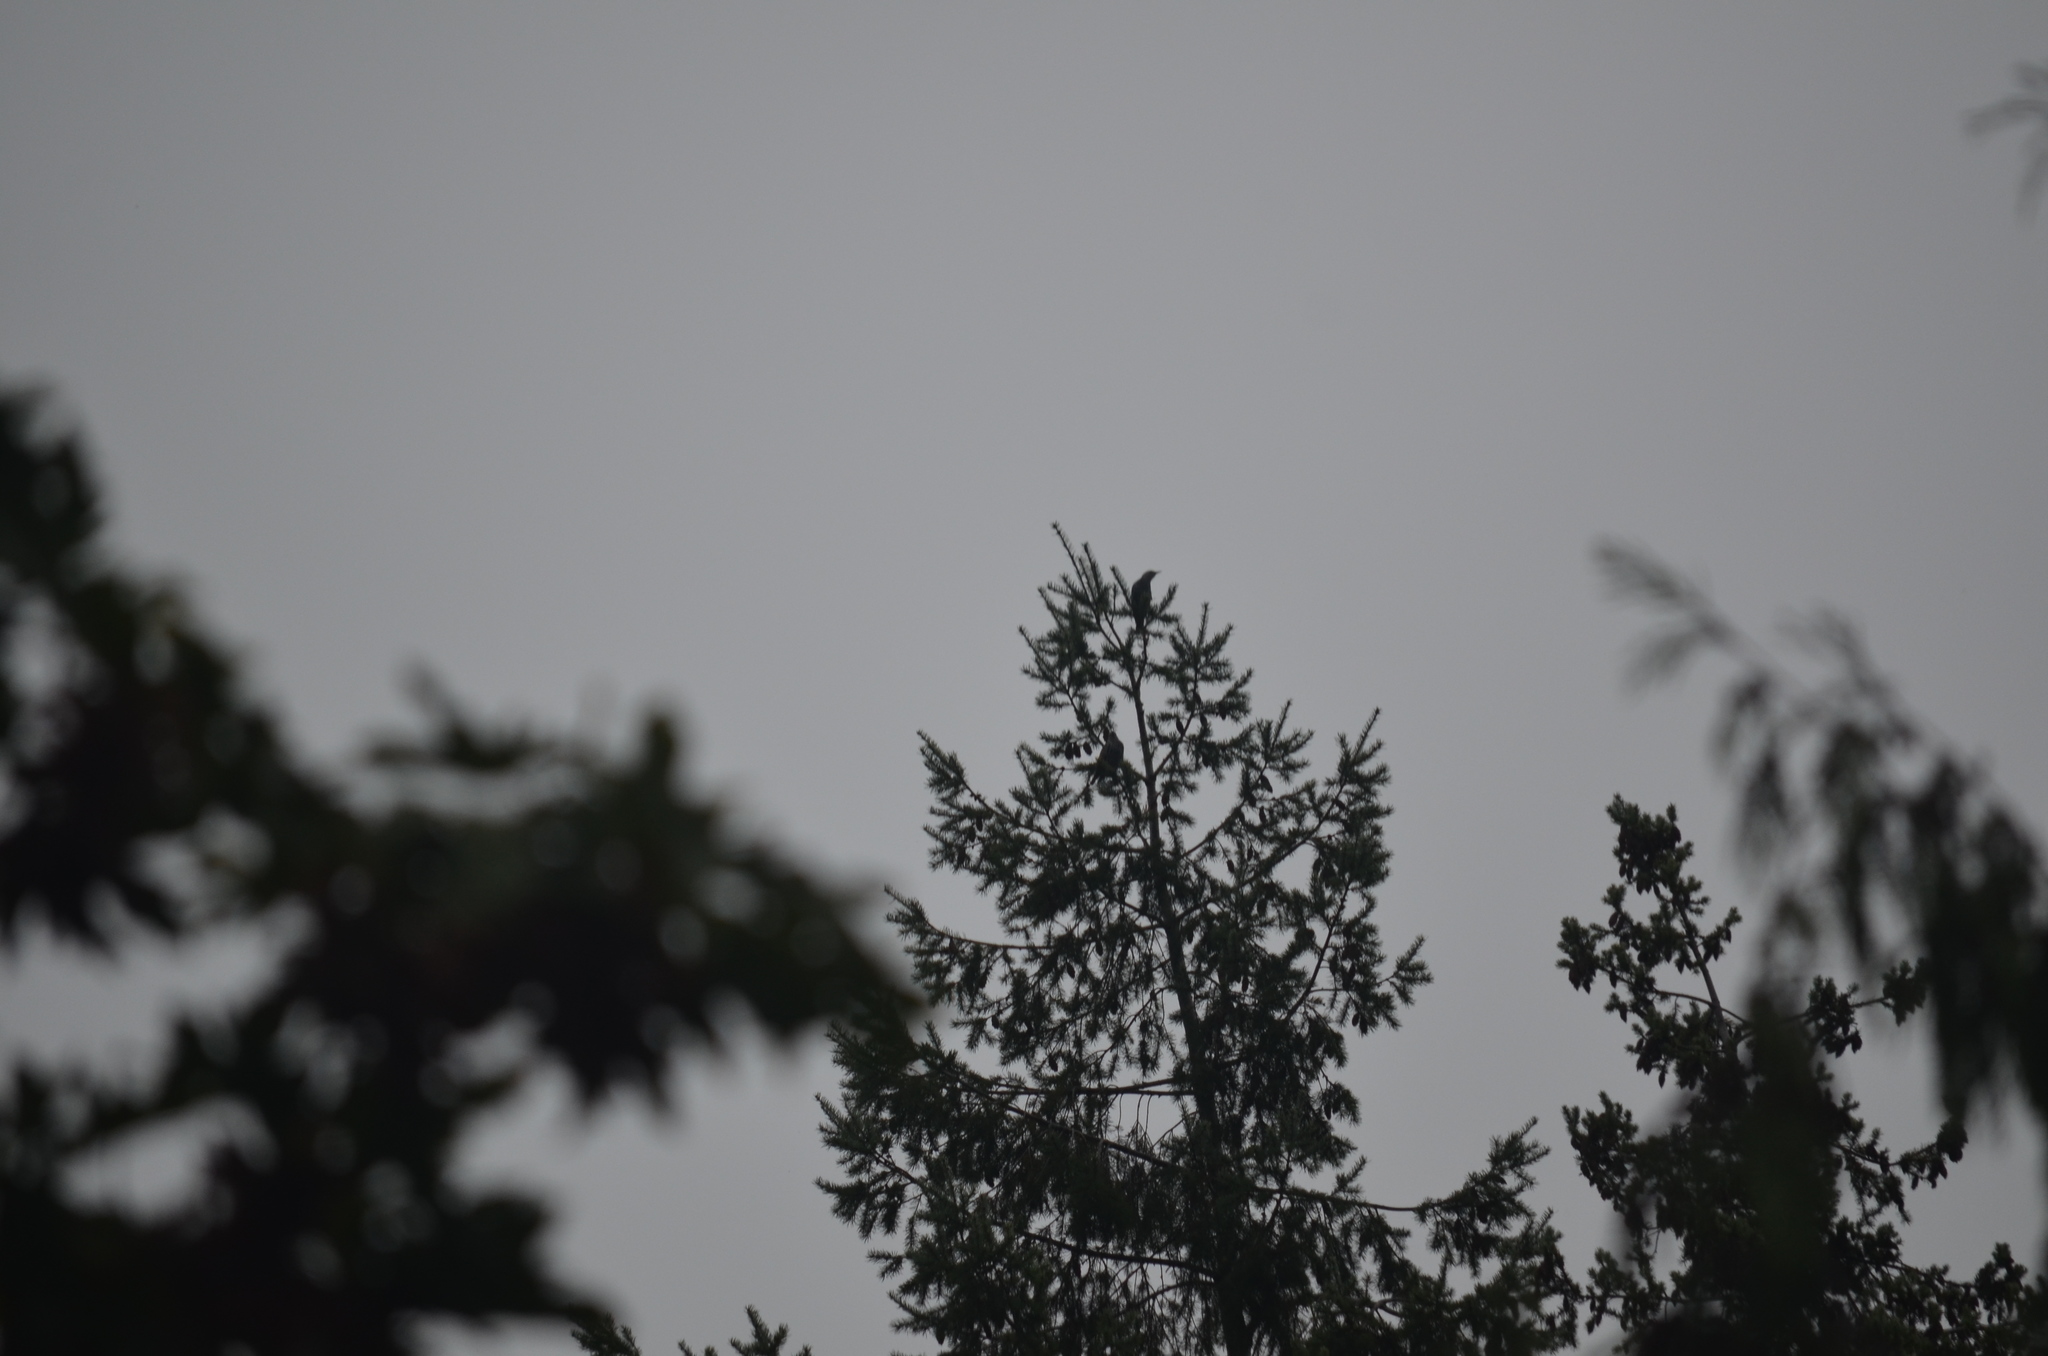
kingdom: Animalia
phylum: Chordata
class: Aves
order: Passeriformes
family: Sturnidae
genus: Sturnus
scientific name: Sturnus vulgaris
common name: Common starling
